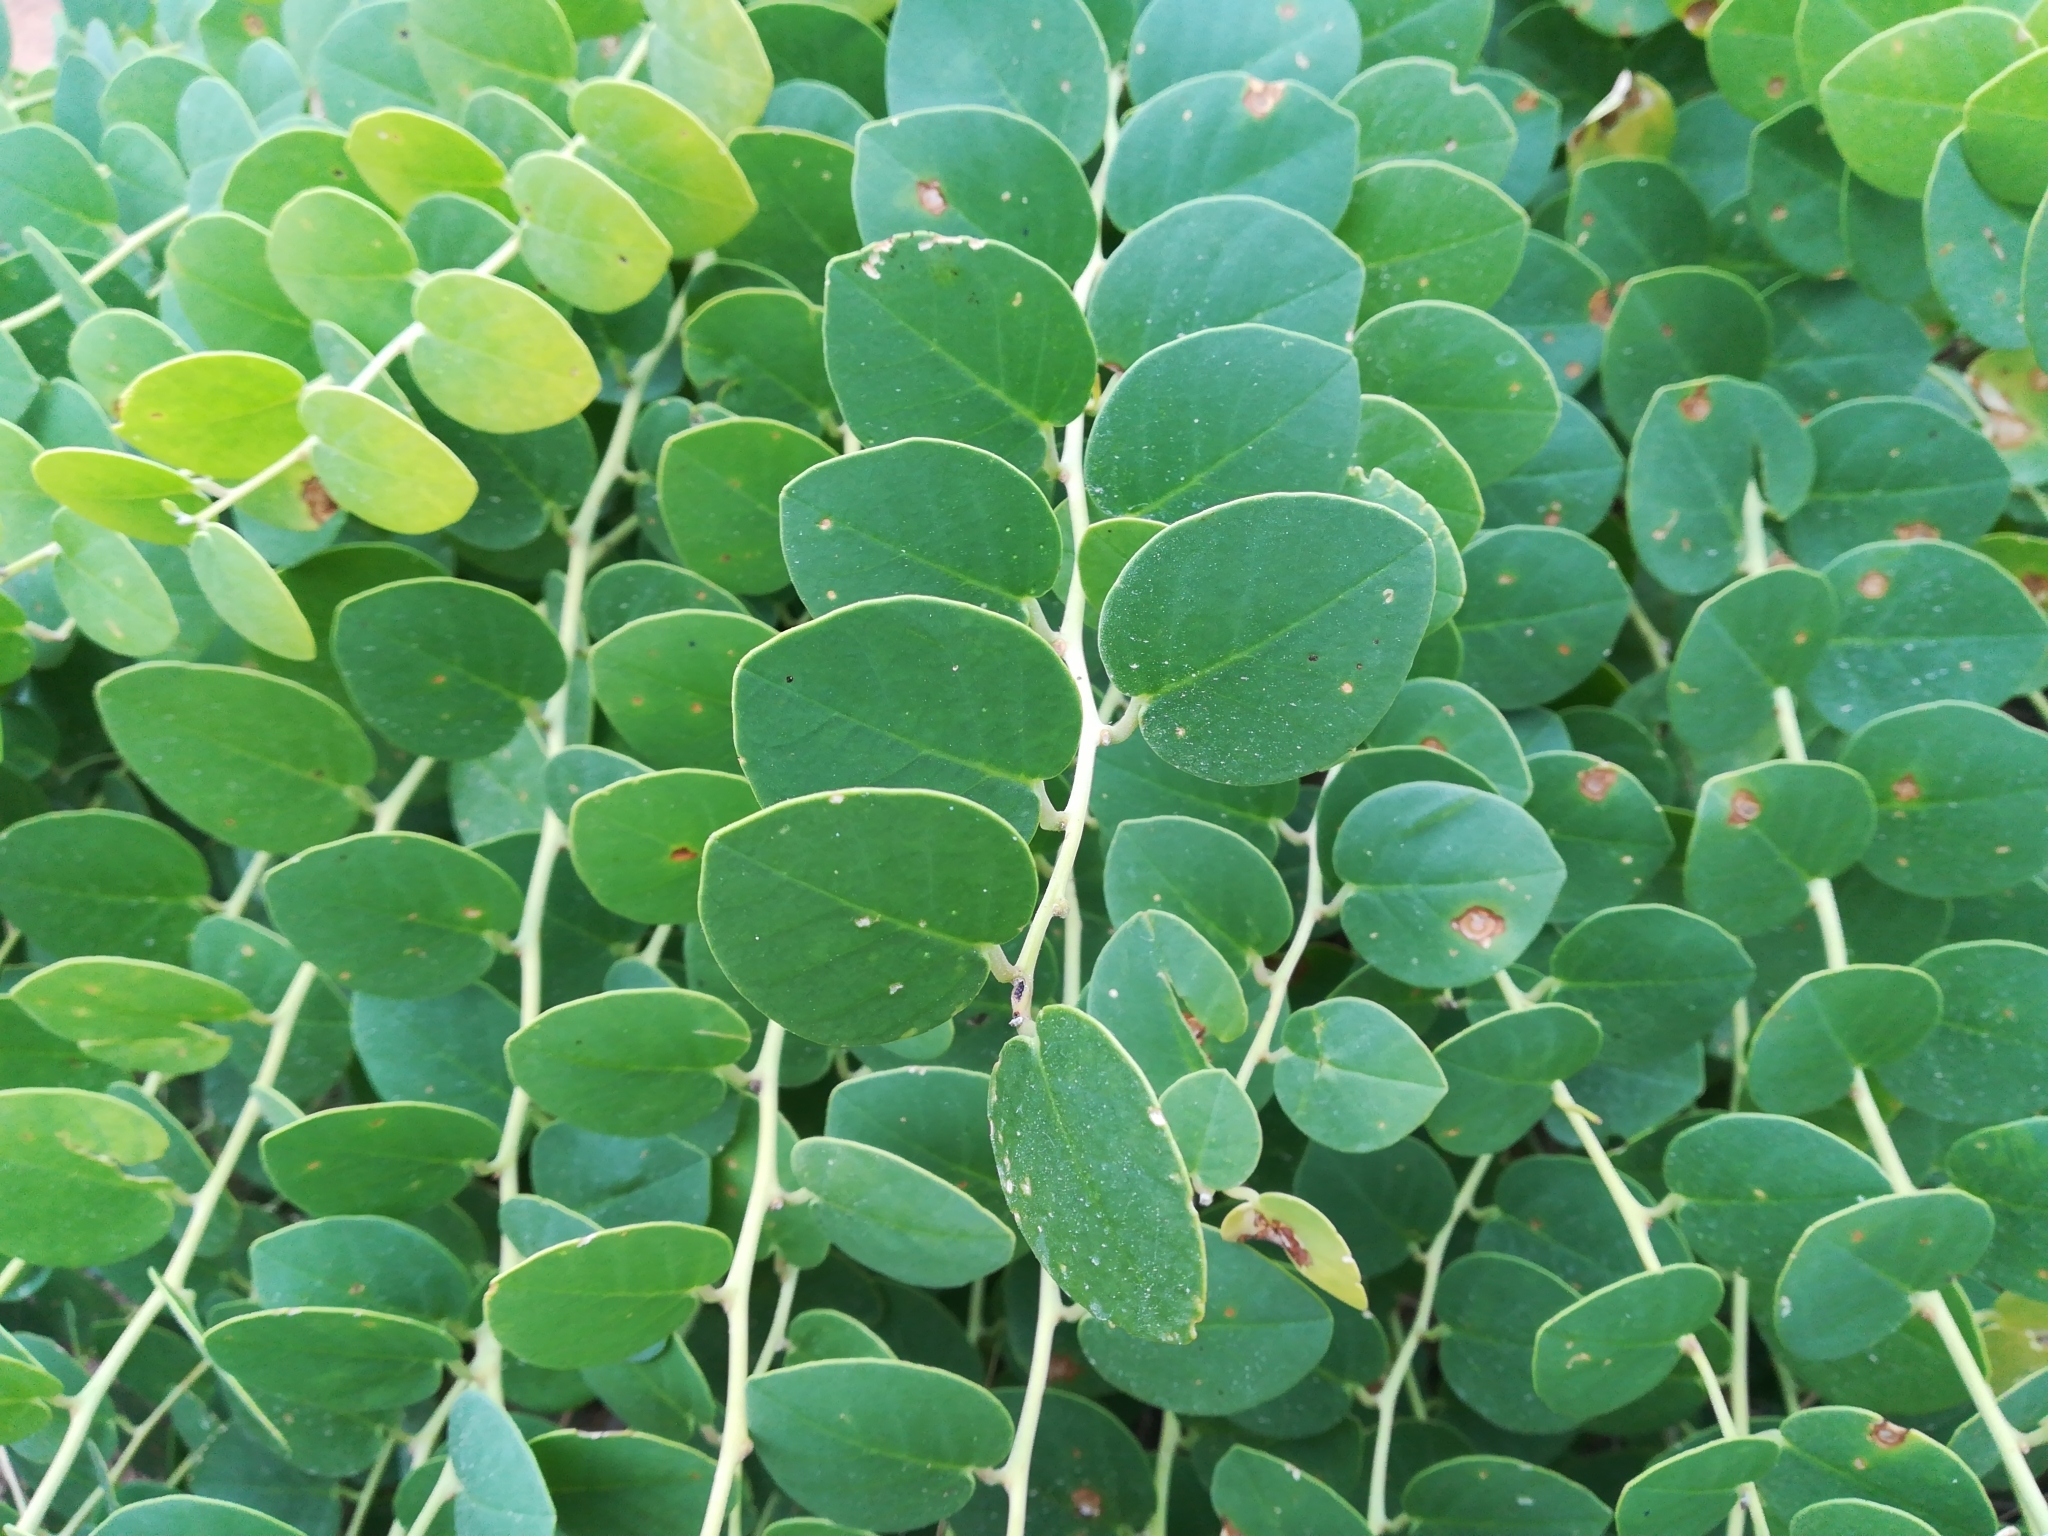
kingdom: Plantae
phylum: Tracheophyta
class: Magnoliopsida
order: Brassicales
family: Capparaceae
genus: Capparis
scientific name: Capparis orientalis
